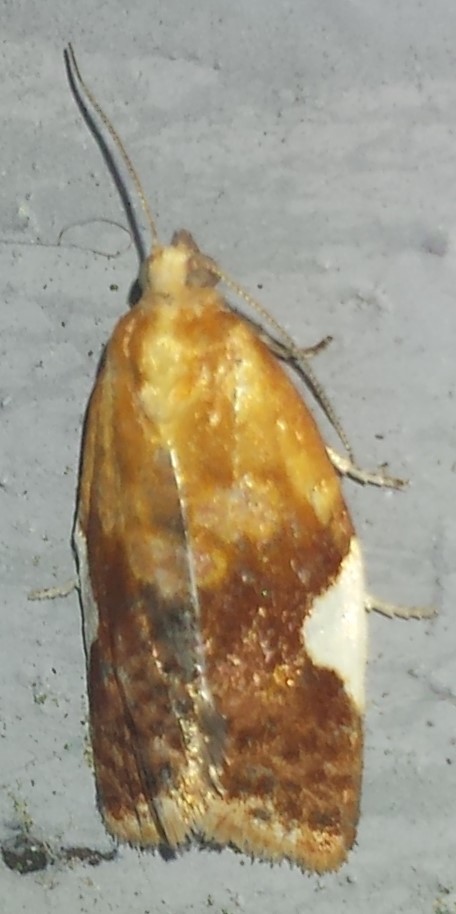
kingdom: Animalia
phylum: Arthropoda
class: Insecta
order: Lepidoptera
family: Tortricidae
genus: Clepsis
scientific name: Clepsis persicana
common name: White triangle tortrix
